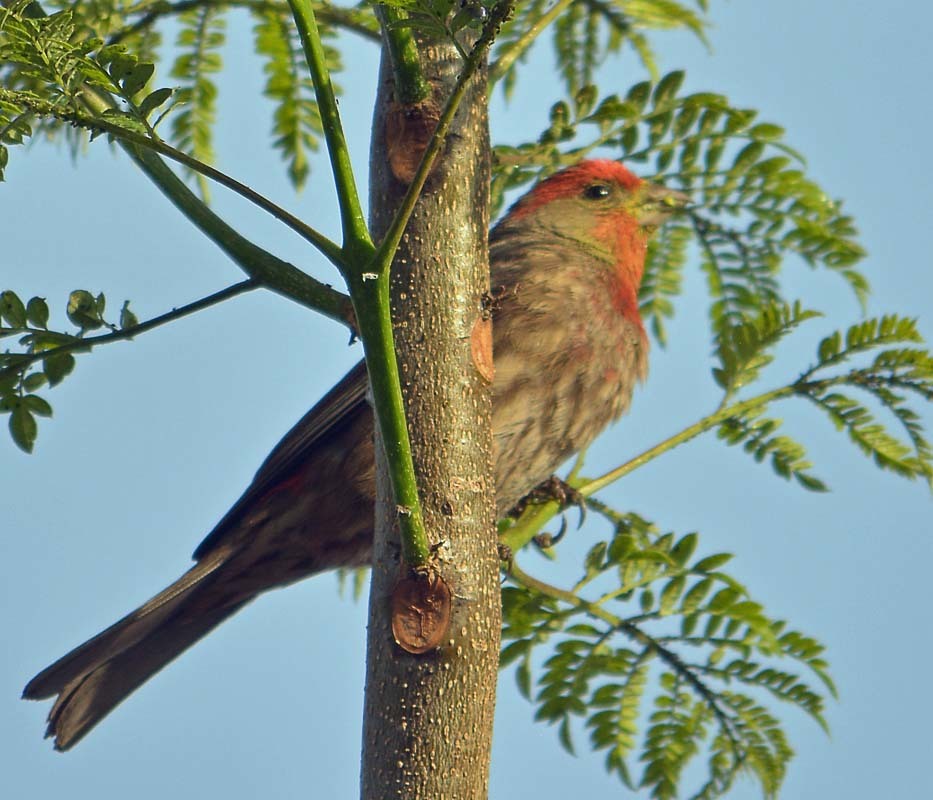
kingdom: Animalia
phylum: Chordata
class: Aves
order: Passeriformes
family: Fringillidae
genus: Haemorhous
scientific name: Haemorhous mexicanus
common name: House finch
